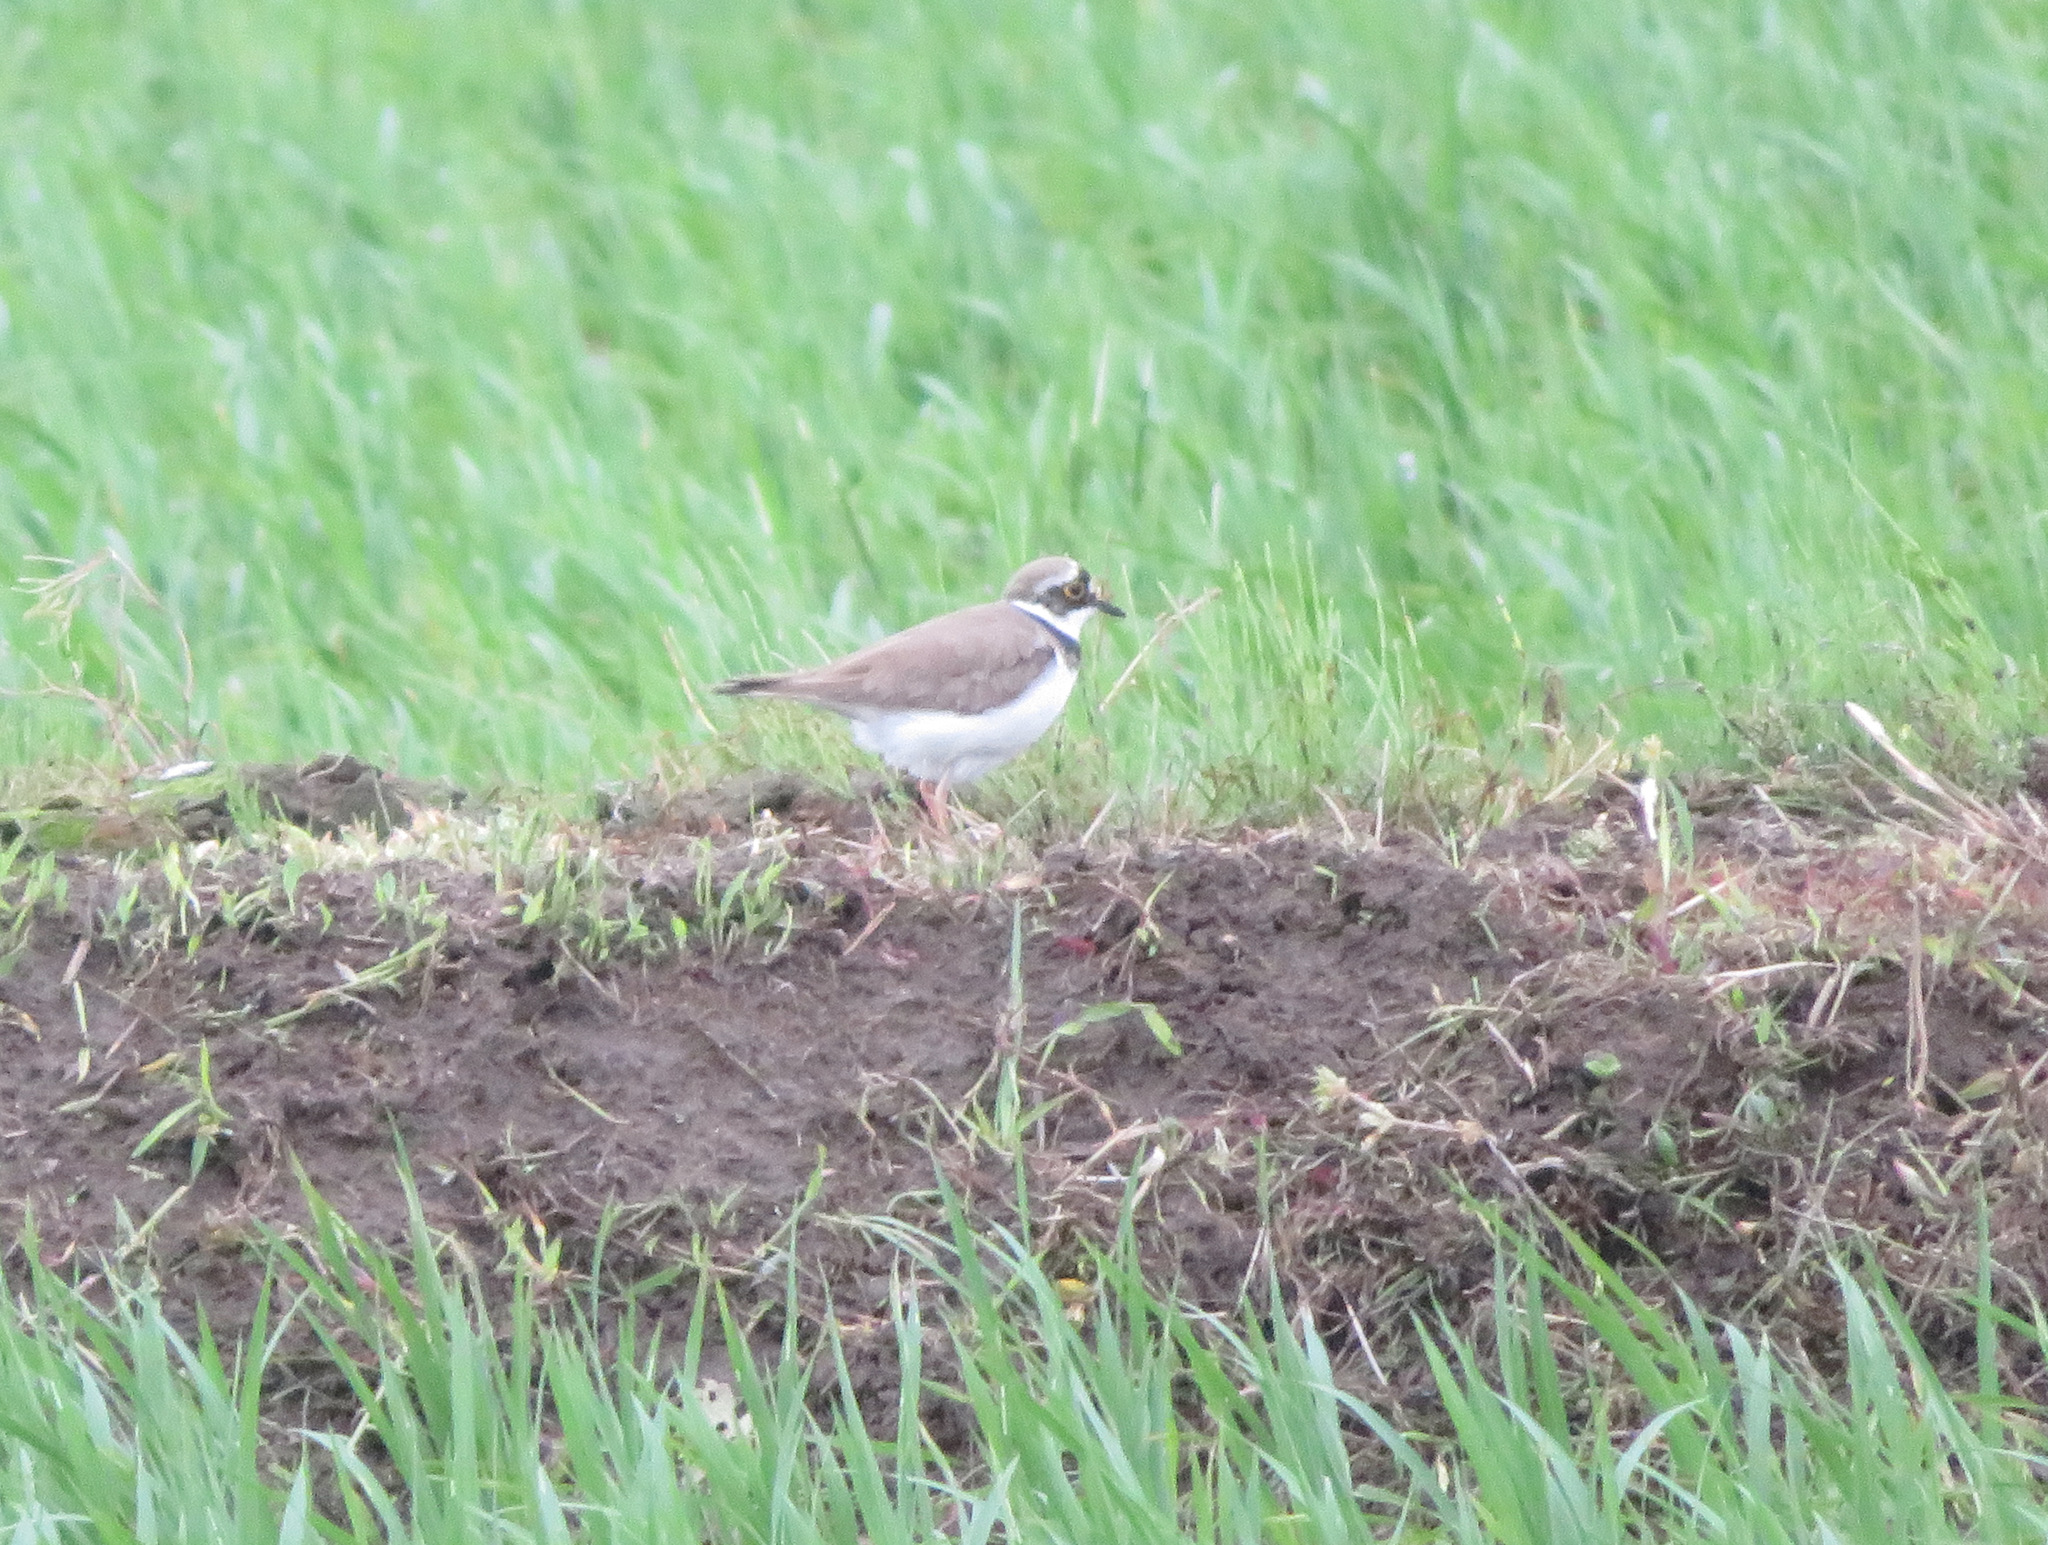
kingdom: Animalia
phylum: Chordata
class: Aves
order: Charadriiformes
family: Charadriidae
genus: Charadrius
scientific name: Charadrius dubius
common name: Little ringed plover
